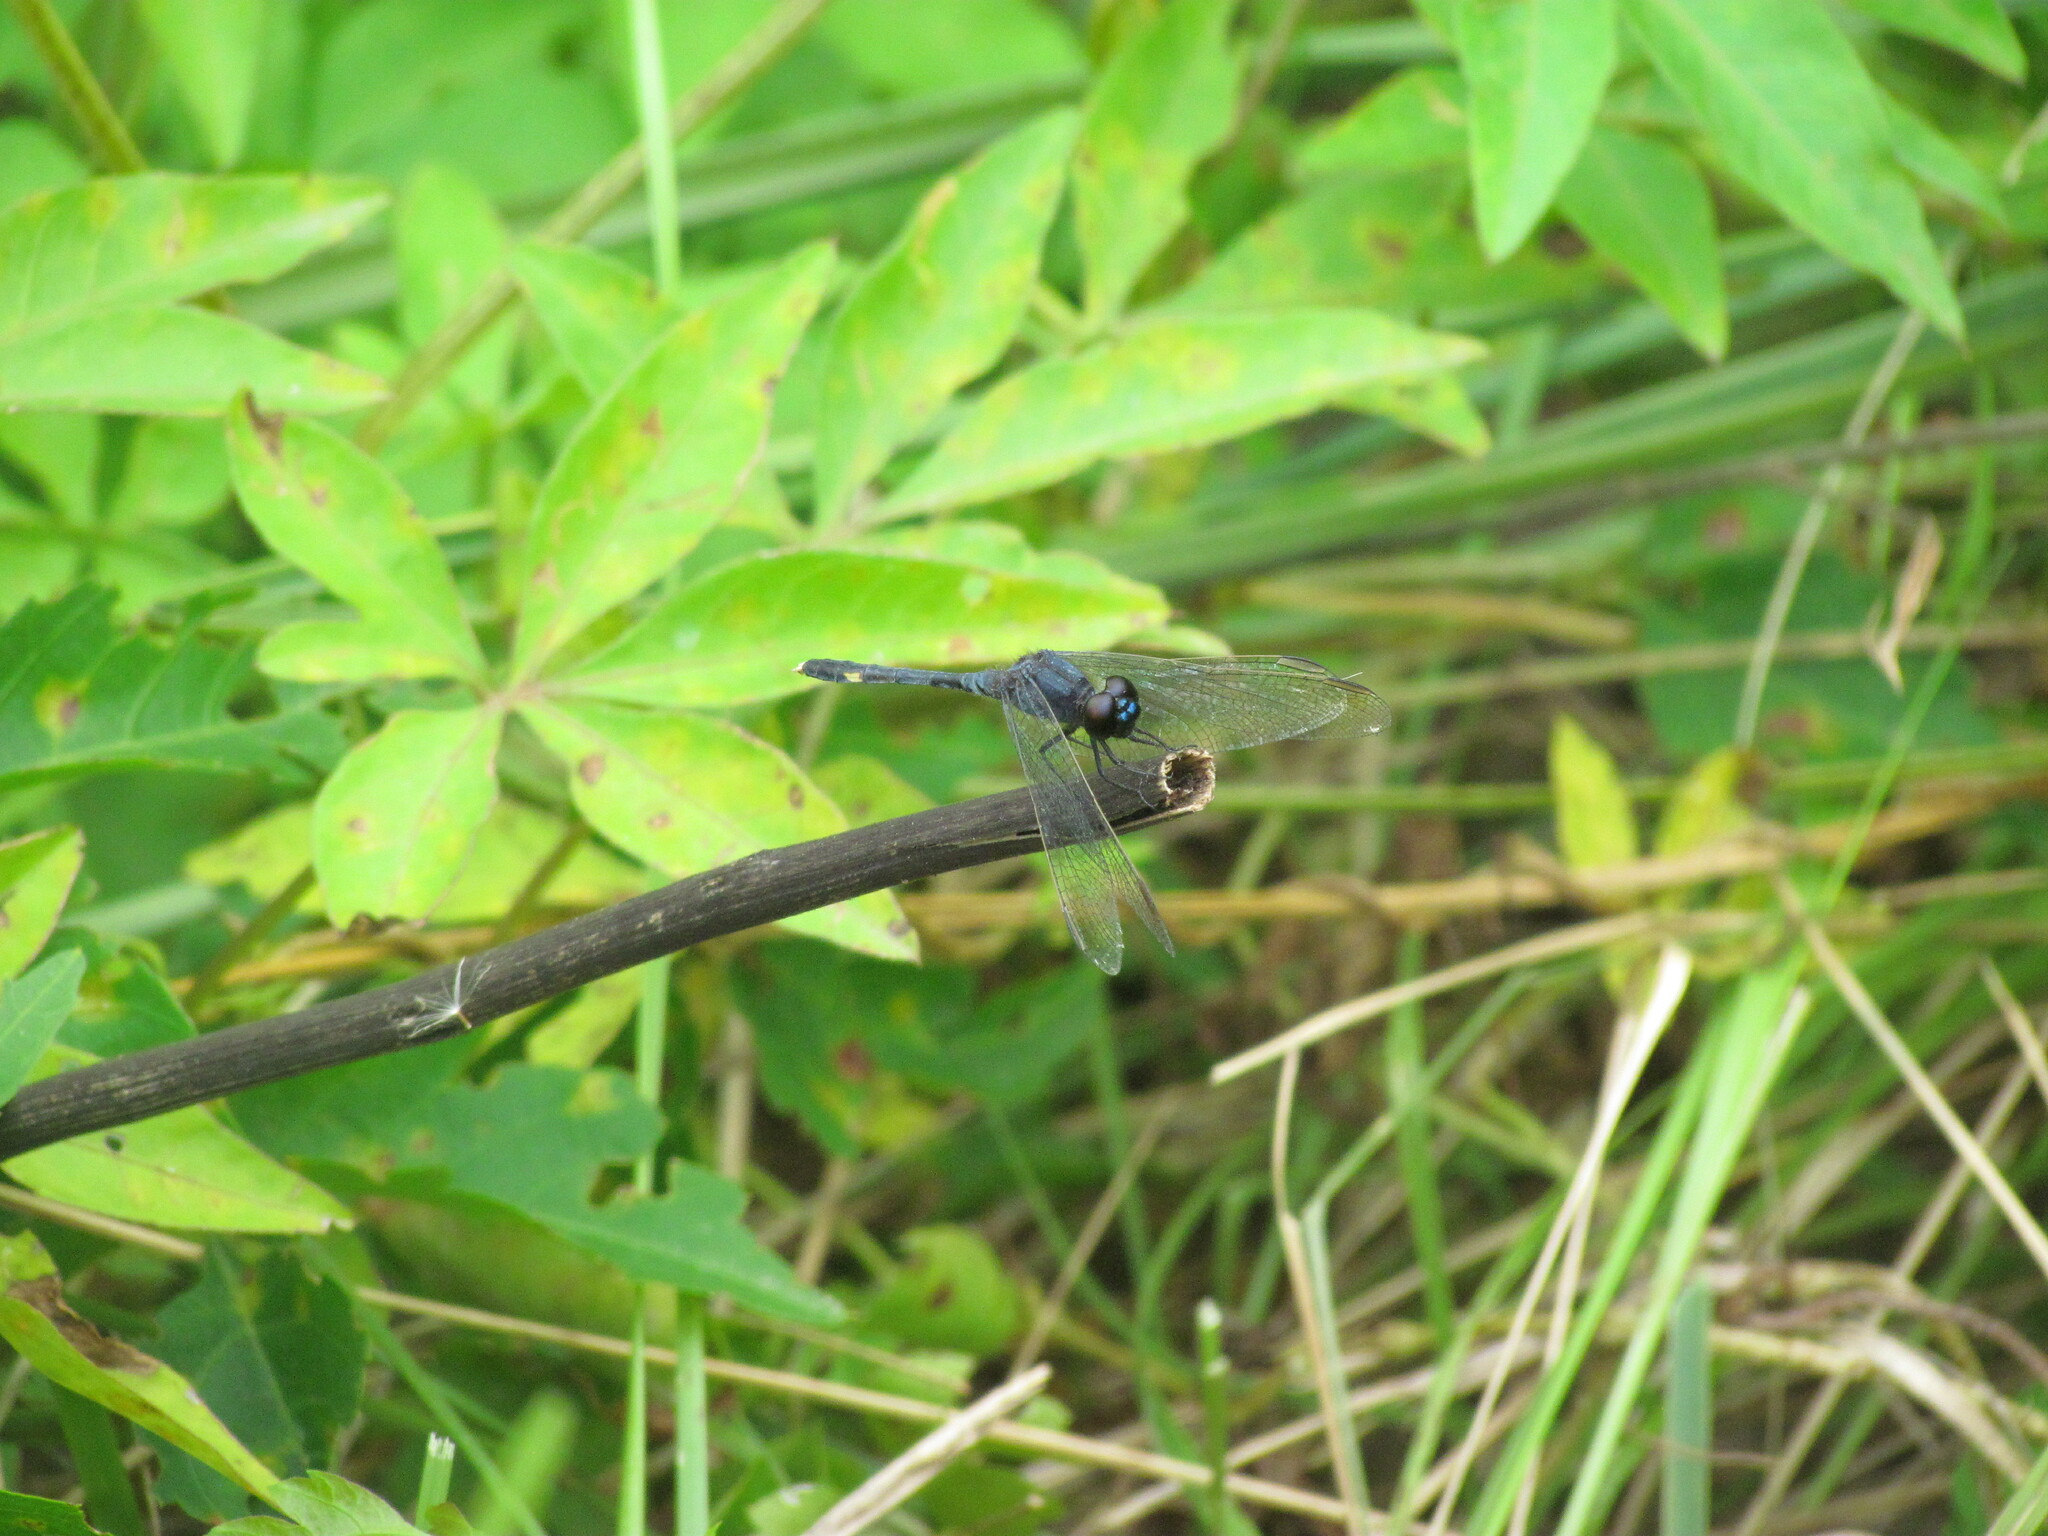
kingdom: Animalia
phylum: Arthropoda
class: Insecta
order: Odonata
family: Libellulidae
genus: Erythrodiplax
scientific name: Erythrodiplax nigricans
